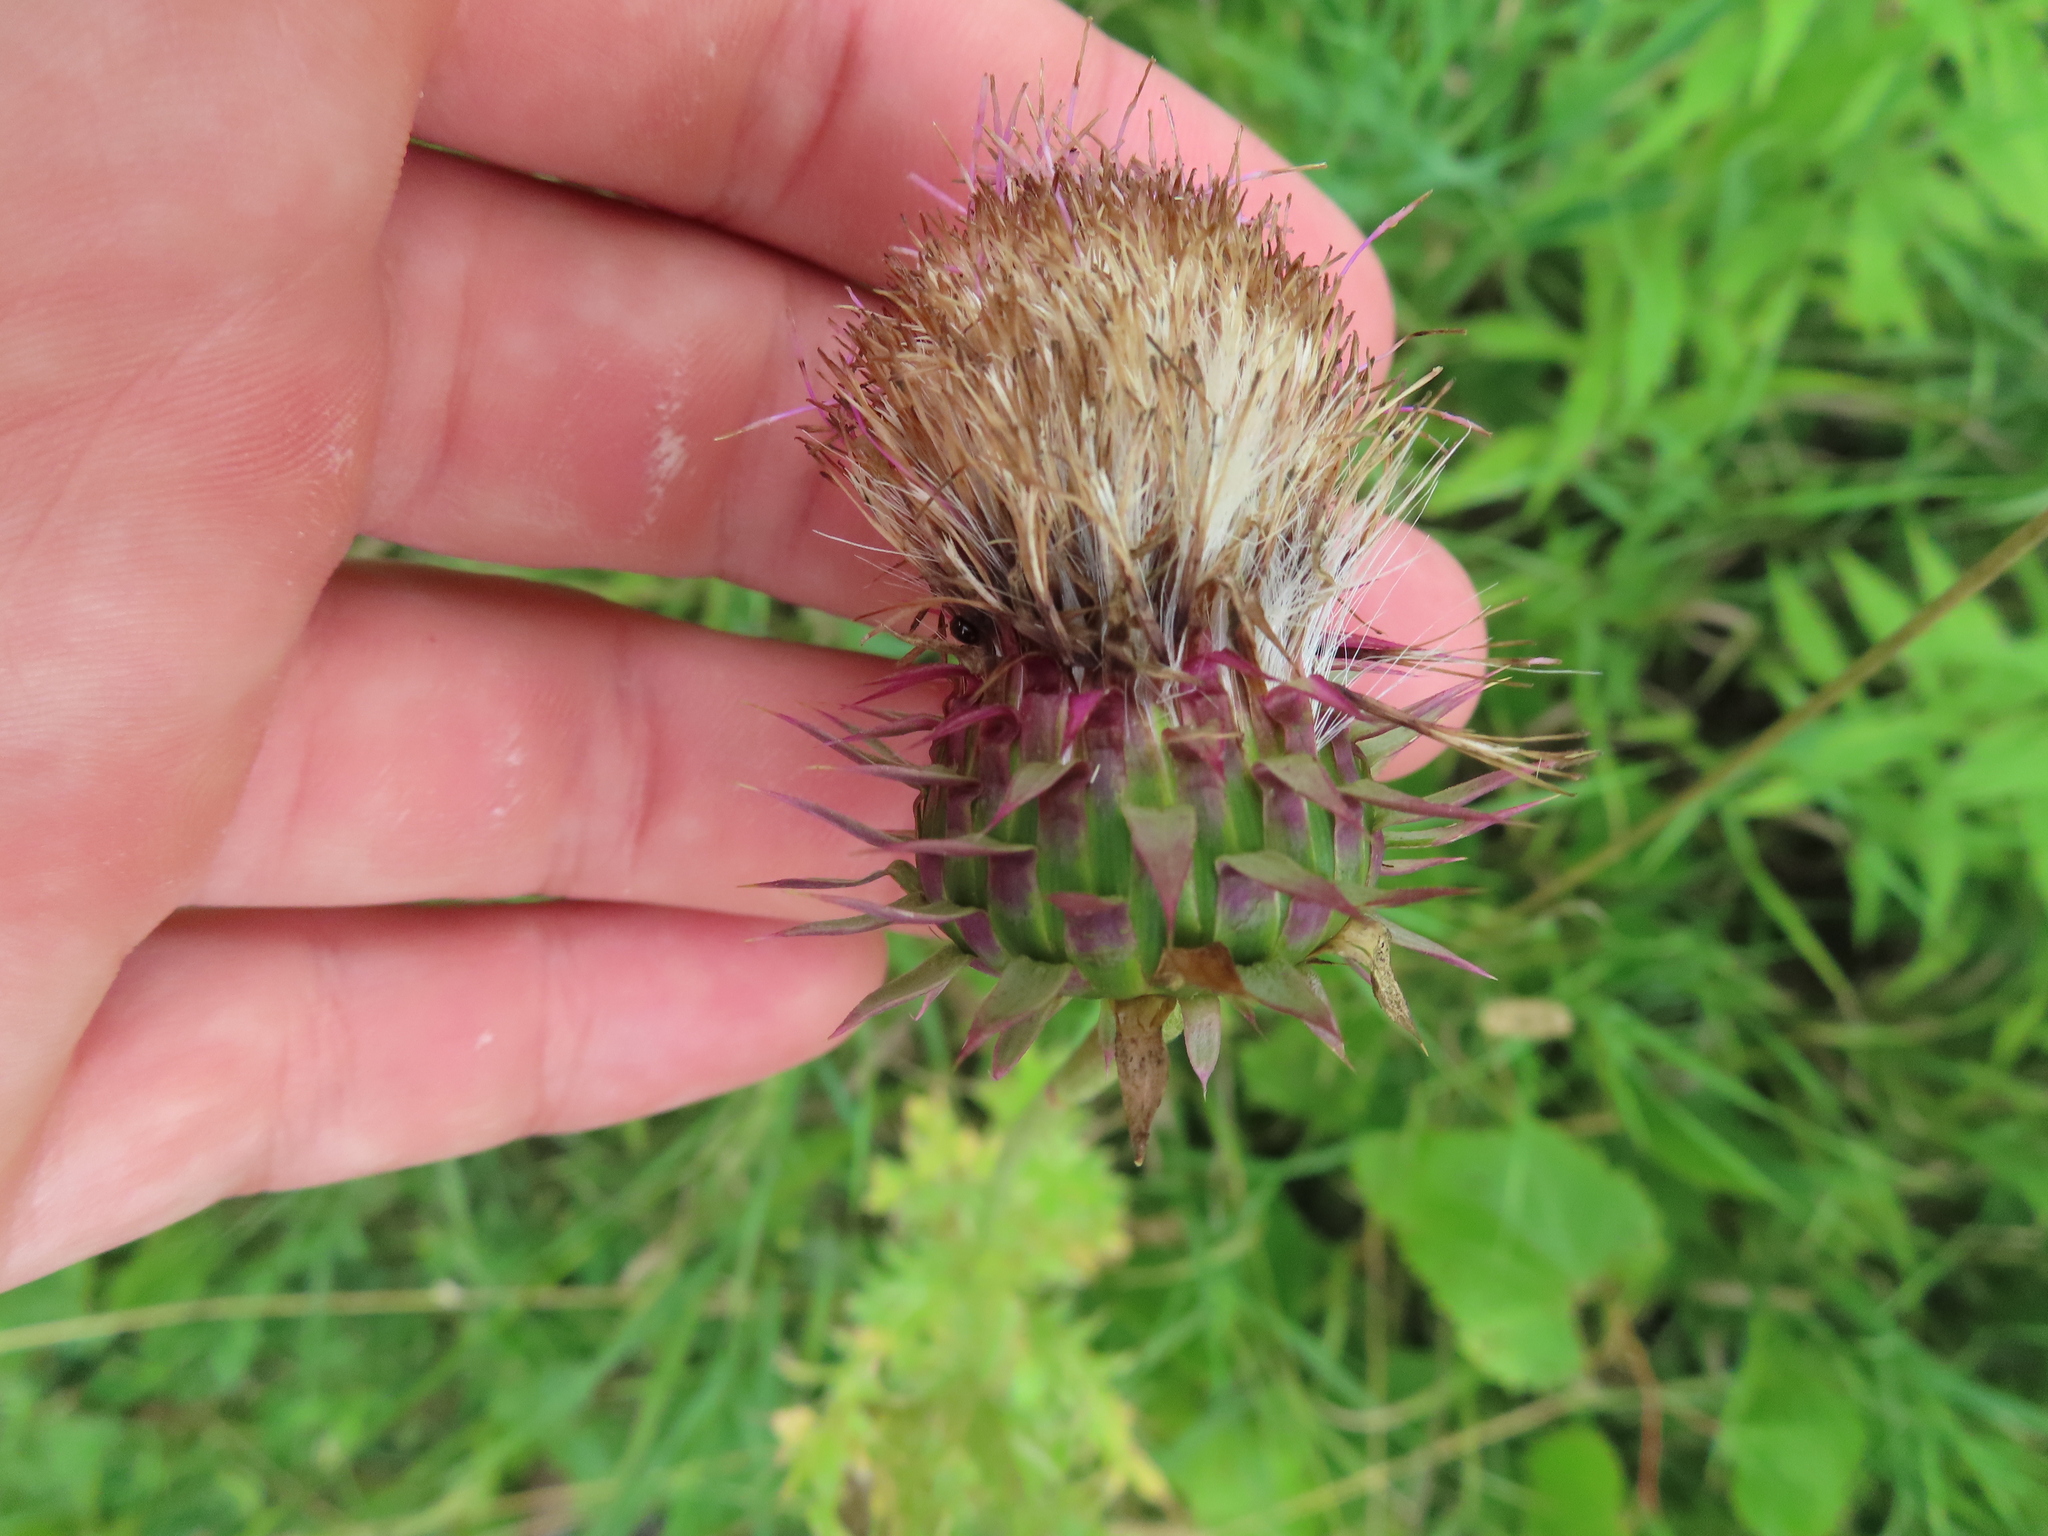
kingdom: Plantae
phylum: Tracheophyta
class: Magnoliopsida
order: Asterales
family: Asteraceae
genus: Carduus
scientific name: Carduus nutans
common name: Musk thistle
